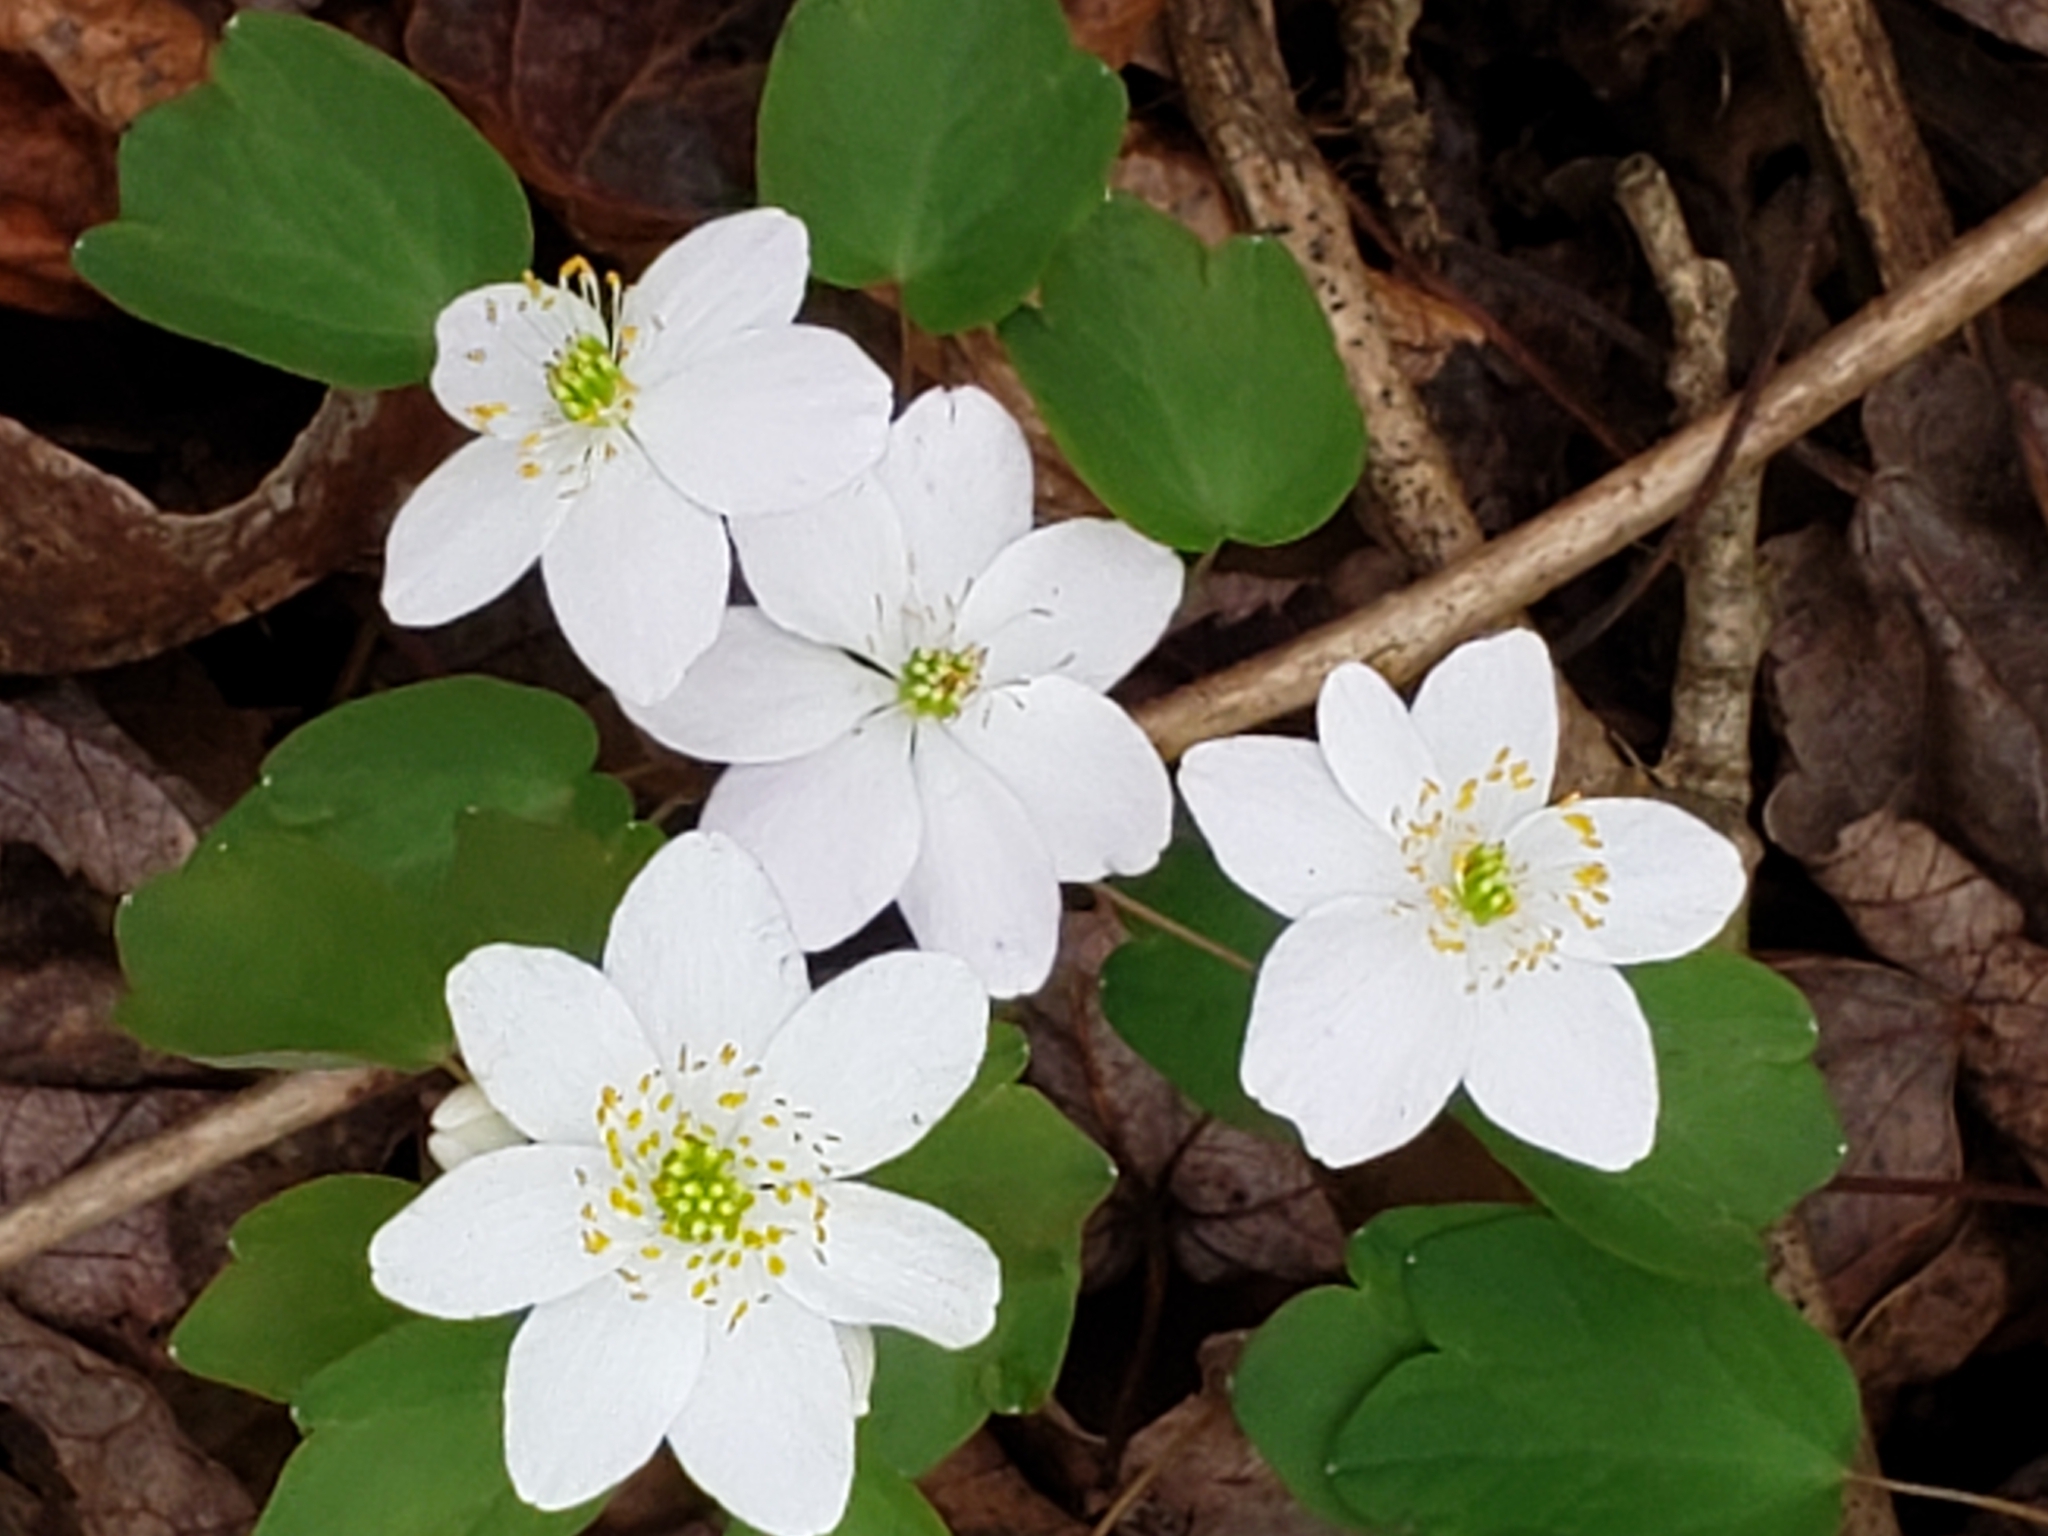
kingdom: Plantae
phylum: Tracheophyta
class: Magnoliopsida
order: Ranunculales
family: Ranunculaceae
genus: Thalictrum
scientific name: Thalictrum thalictroides
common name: Rue-anemone
